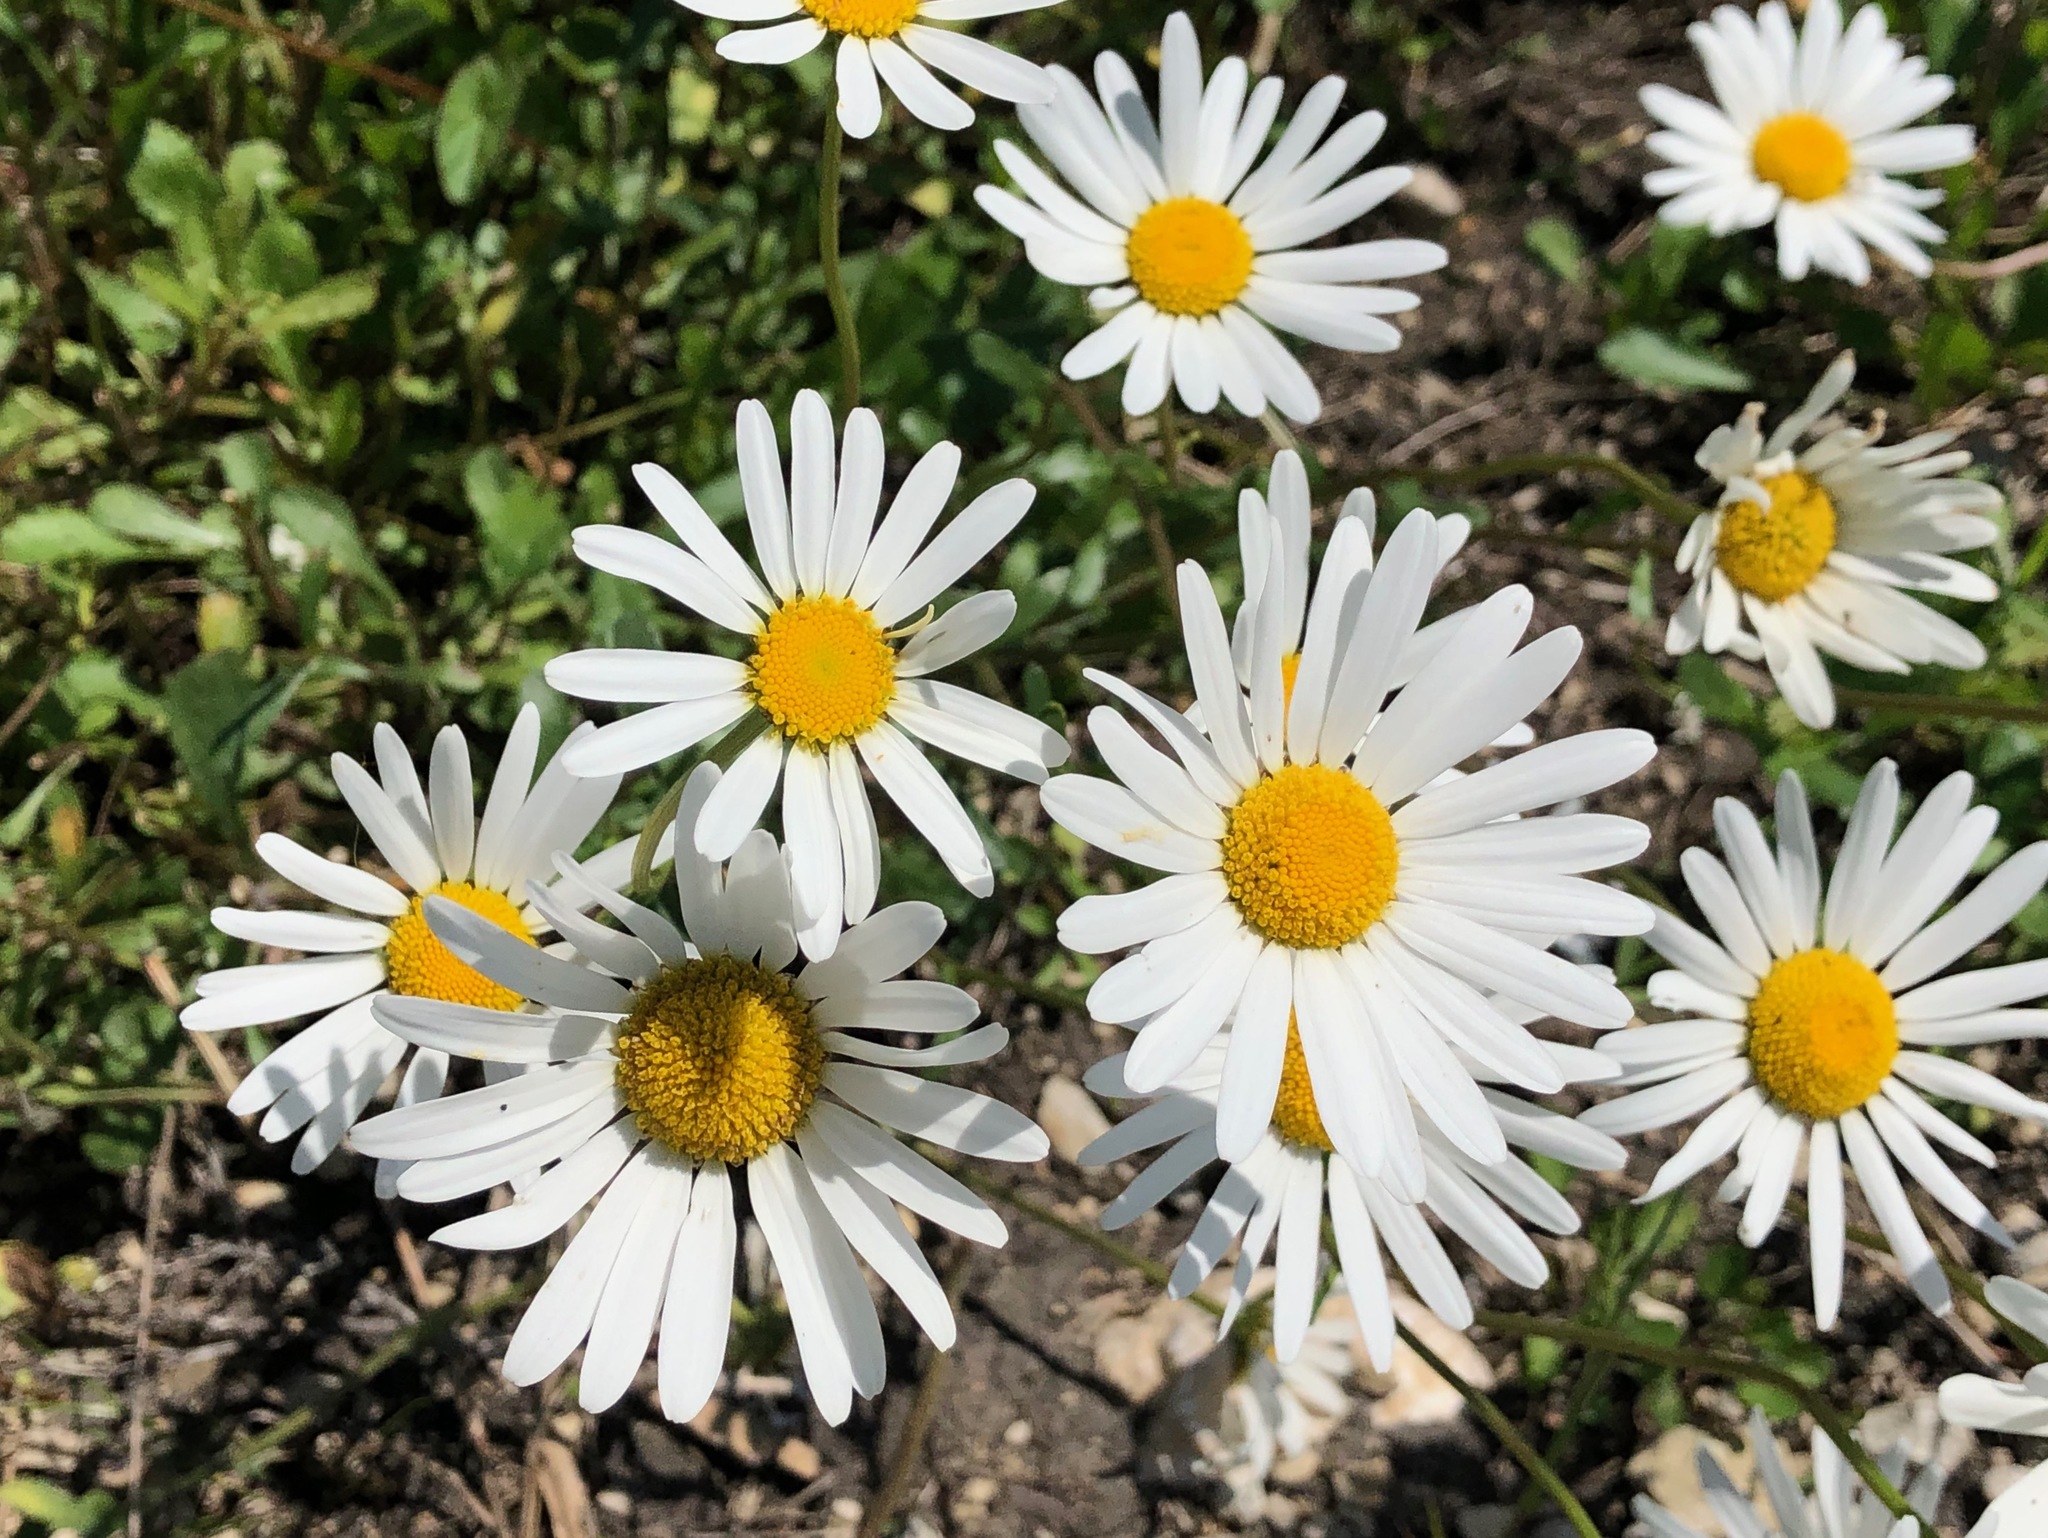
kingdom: Plantae
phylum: Tracheophyta
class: Magnoliopsida
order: Asterales
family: Asteraceae
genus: Leucanthemum
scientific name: Leucanthemum vulgare
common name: Oxeye daisy
